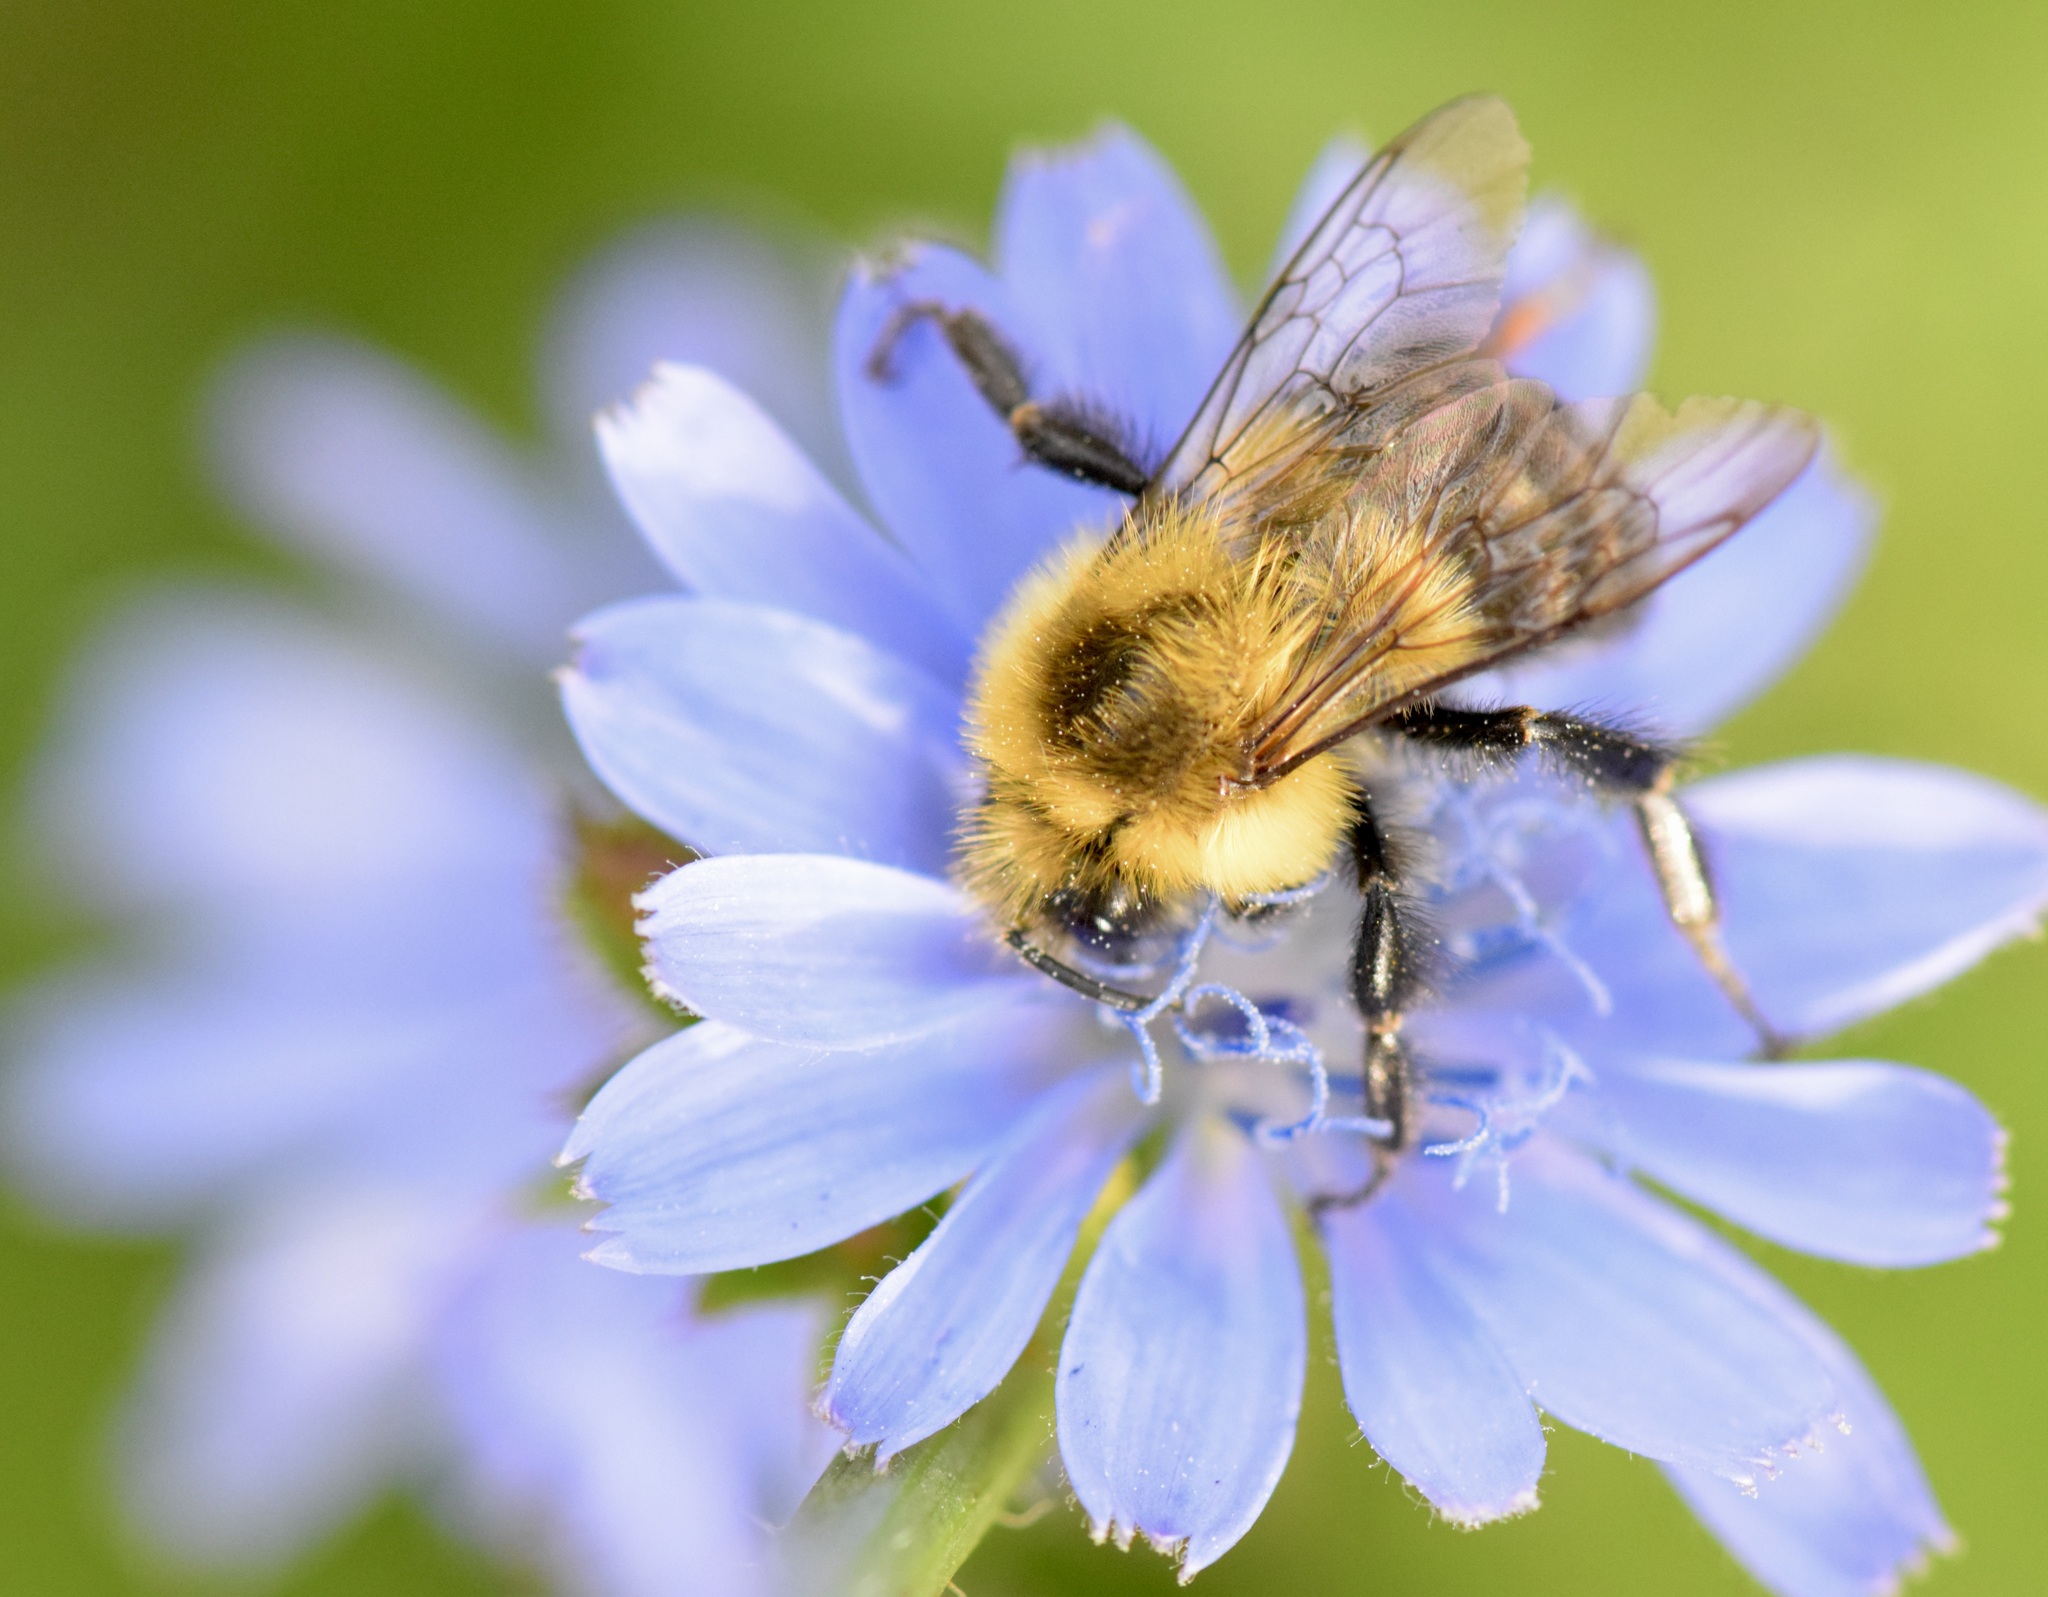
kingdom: Animalia
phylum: Arthropoda
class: Insecta
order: Hymenoptera
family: Apidae
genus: Bombus
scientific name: Bombus impatiens
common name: Common eastern bumble bee
